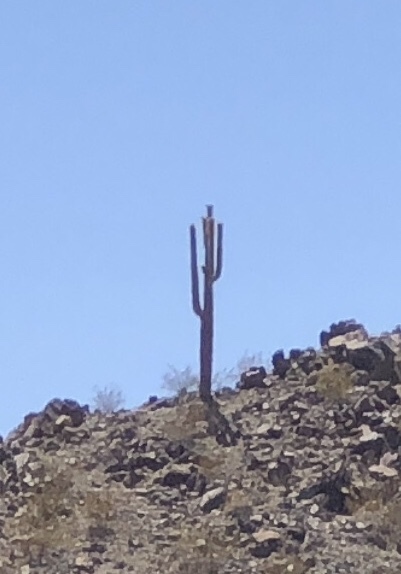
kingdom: Plantae
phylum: Tracheophyta
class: Magnoliopsida
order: Caryophyllales
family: Cactaceae
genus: Carnegiea
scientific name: Carnegiea gigantea
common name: Saguaro
